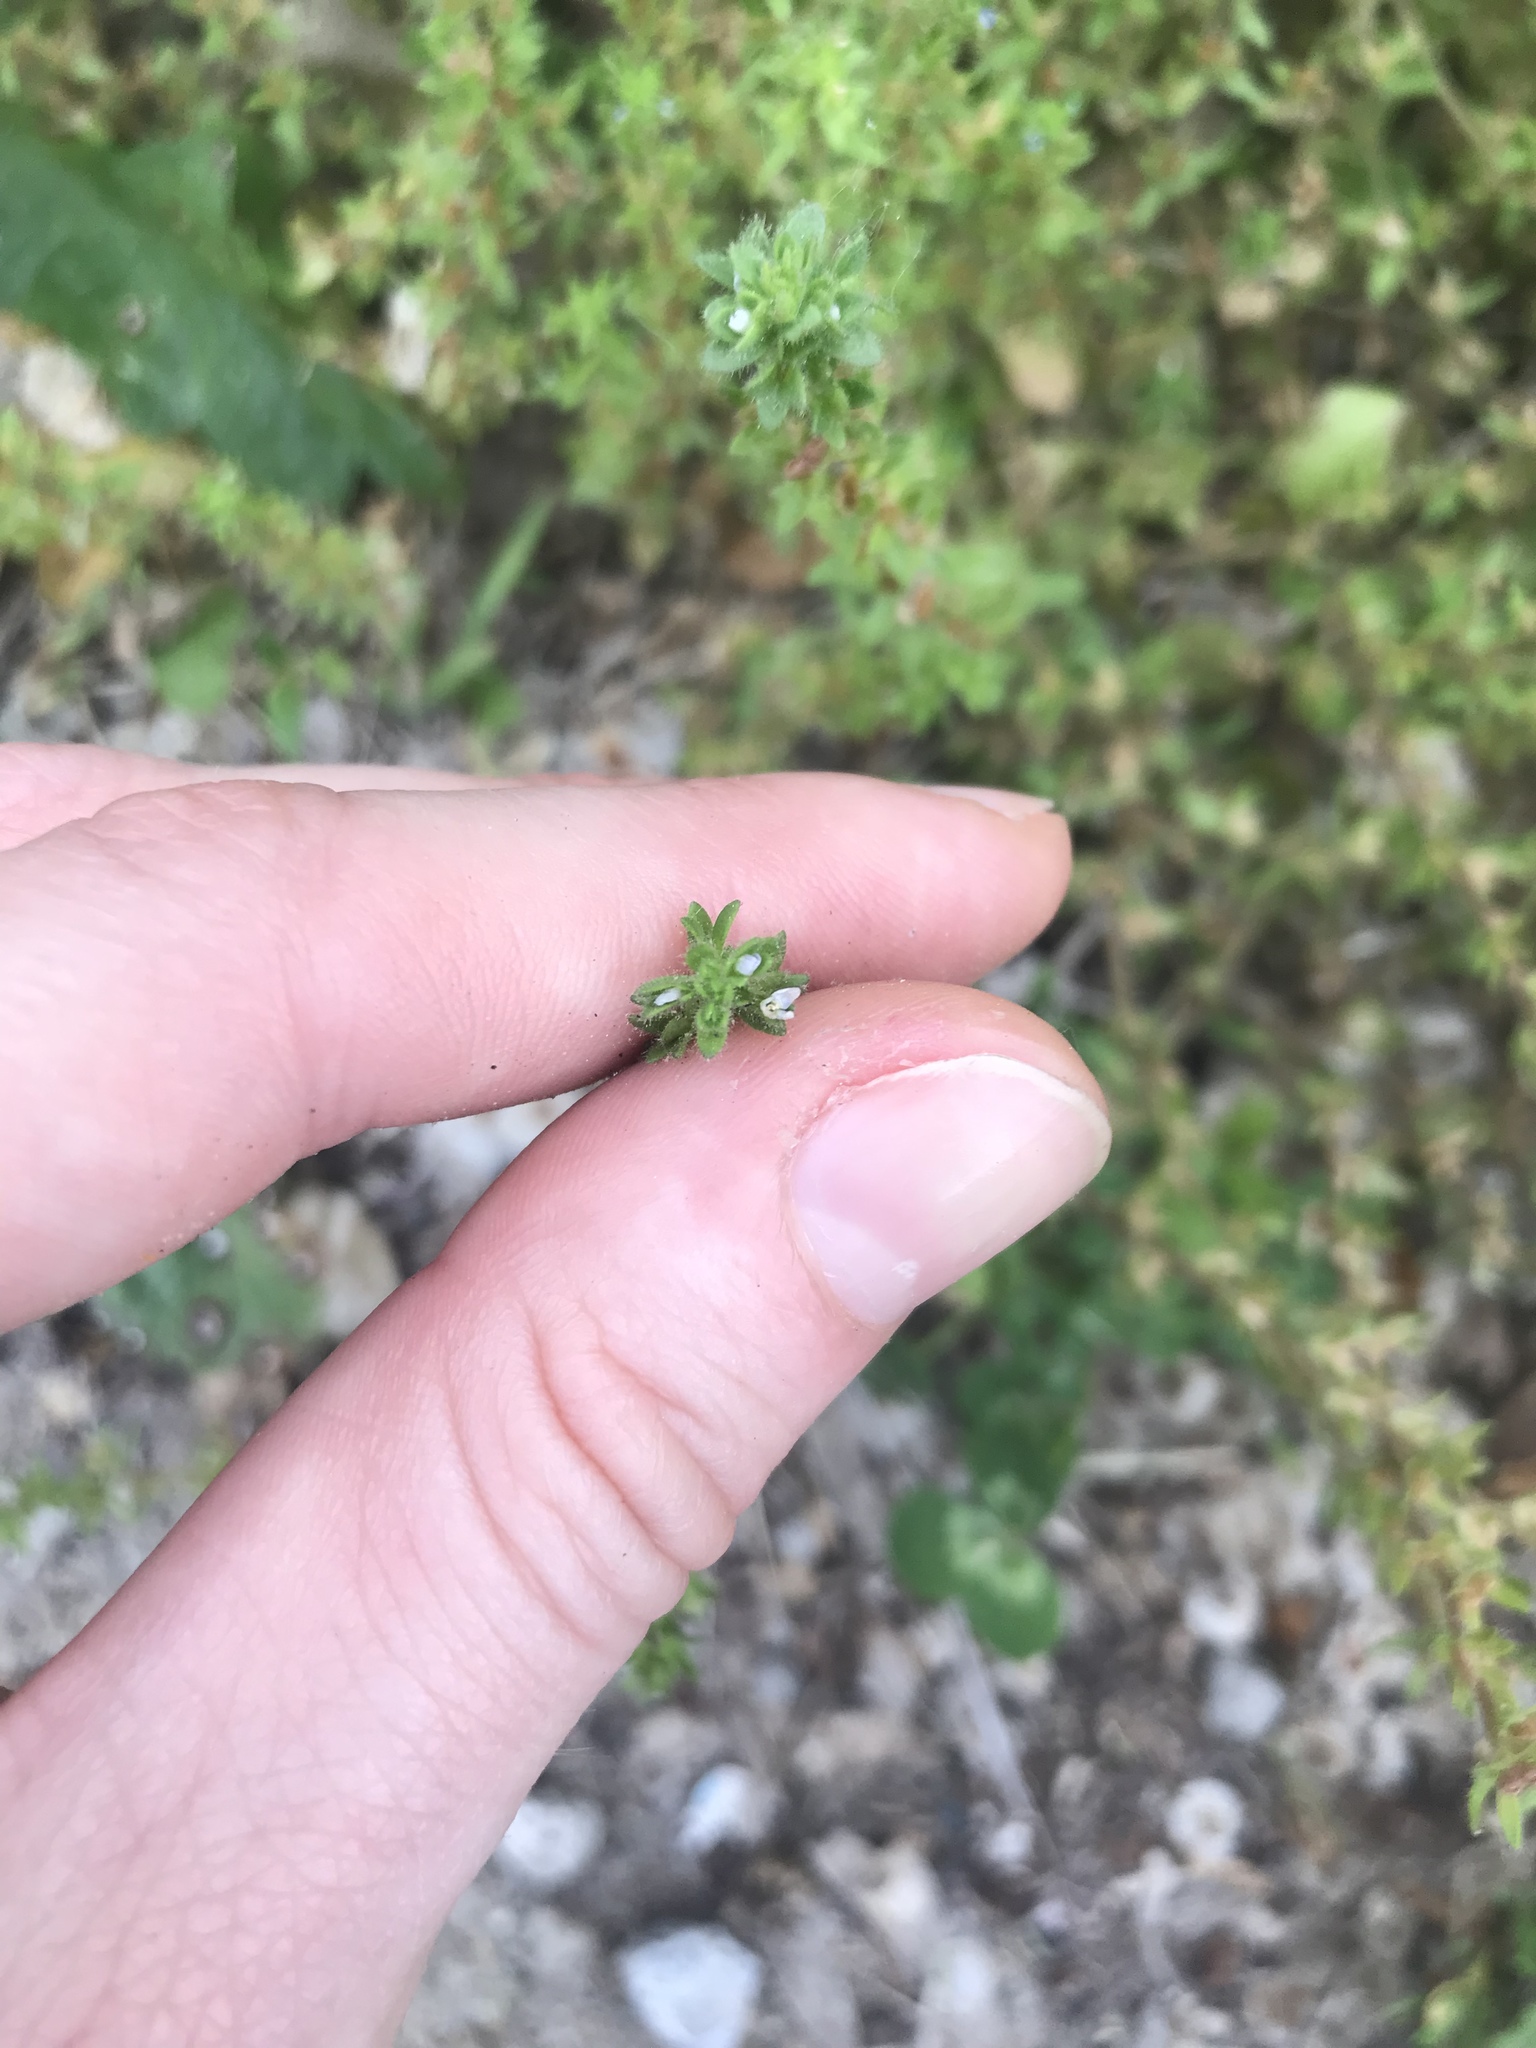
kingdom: Plantae
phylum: Tracheophyta
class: Magnoliopsida
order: Lamiales
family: Plantaginaceae
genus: Veronica
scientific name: Veronica arvensis
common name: Corn speedwell
